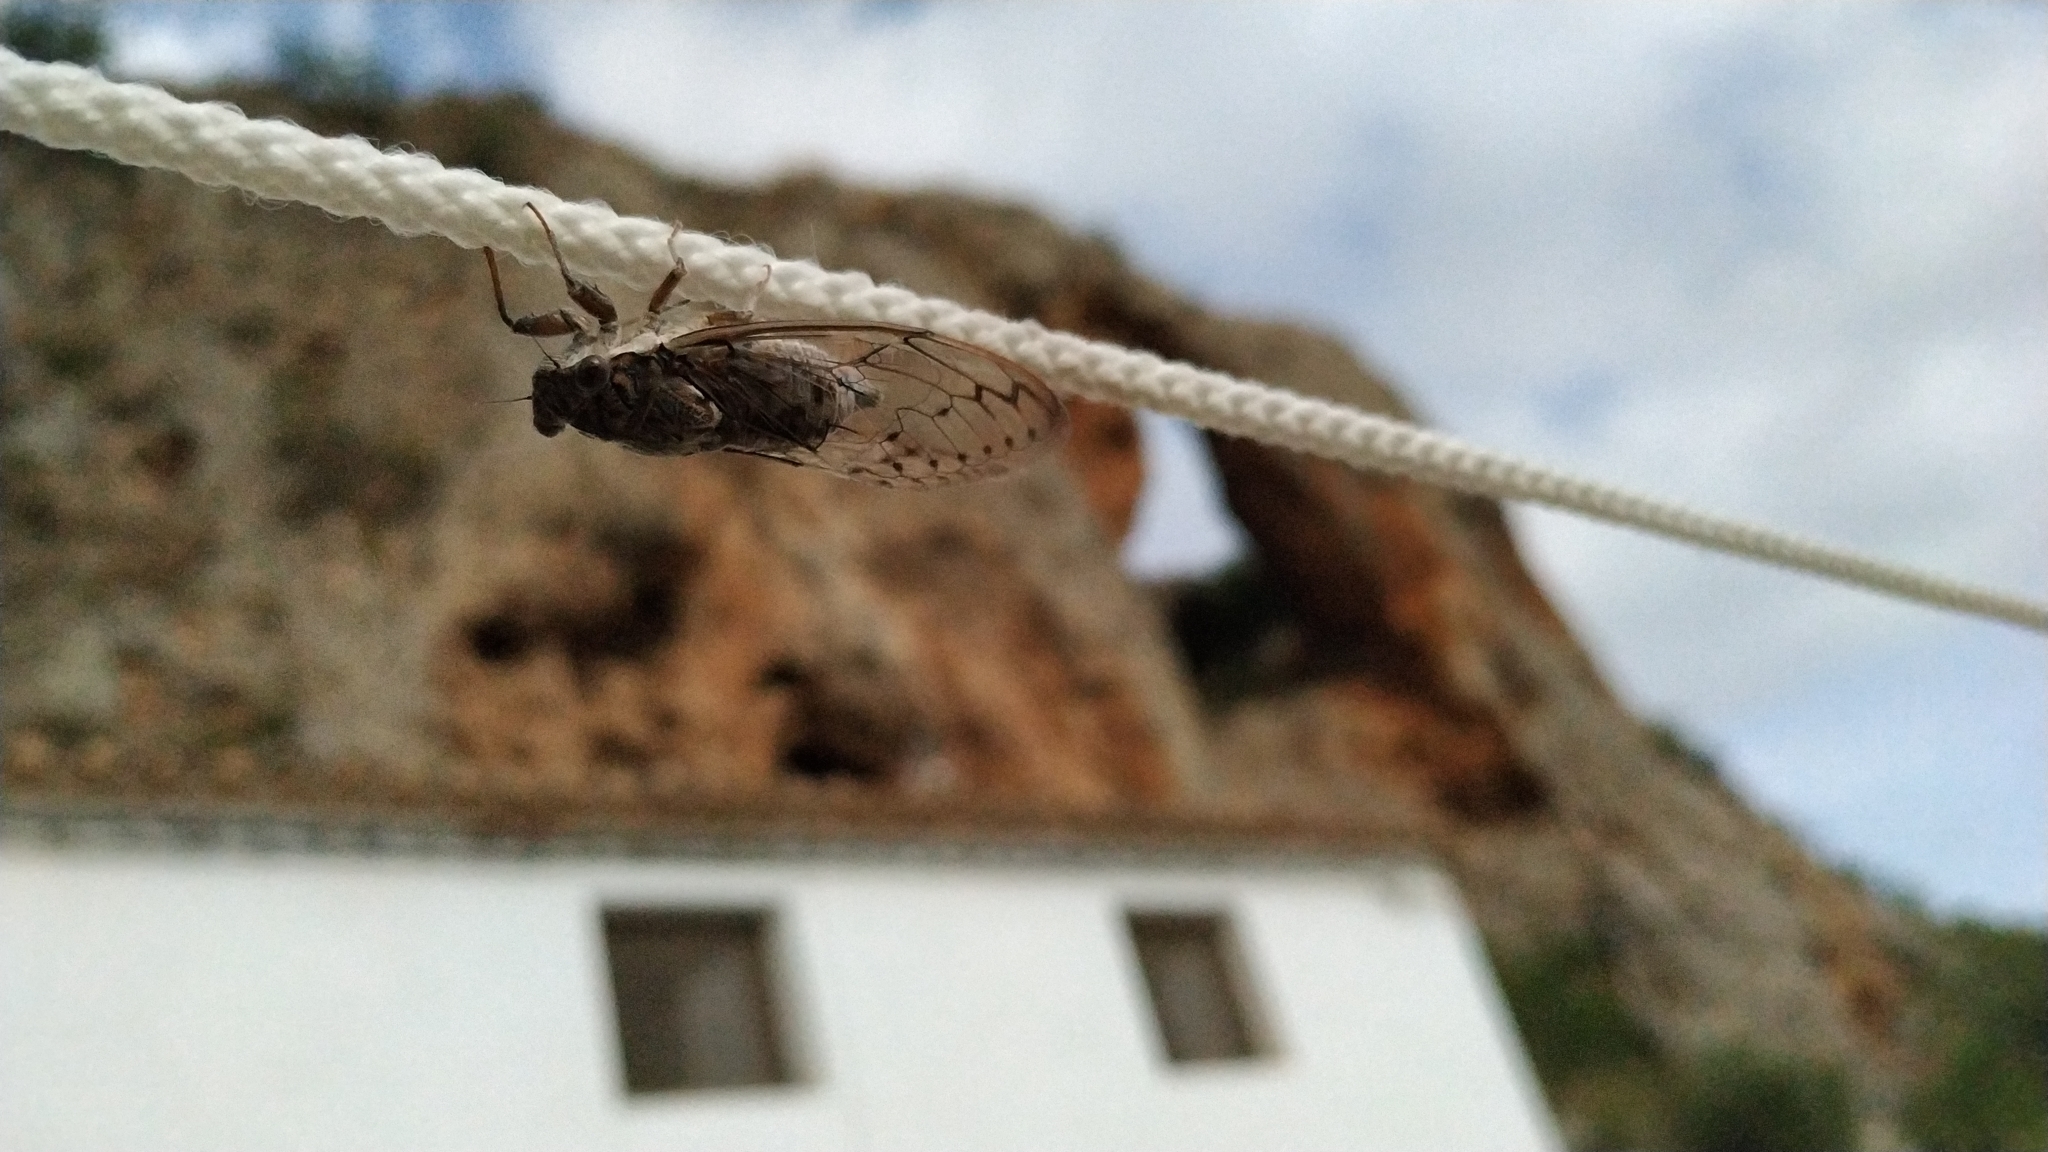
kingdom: Animalia
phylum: Arthropoda
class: Insecta
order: Hemiptera
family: Cicadidae
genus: Cicada
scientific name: Cicada orni
